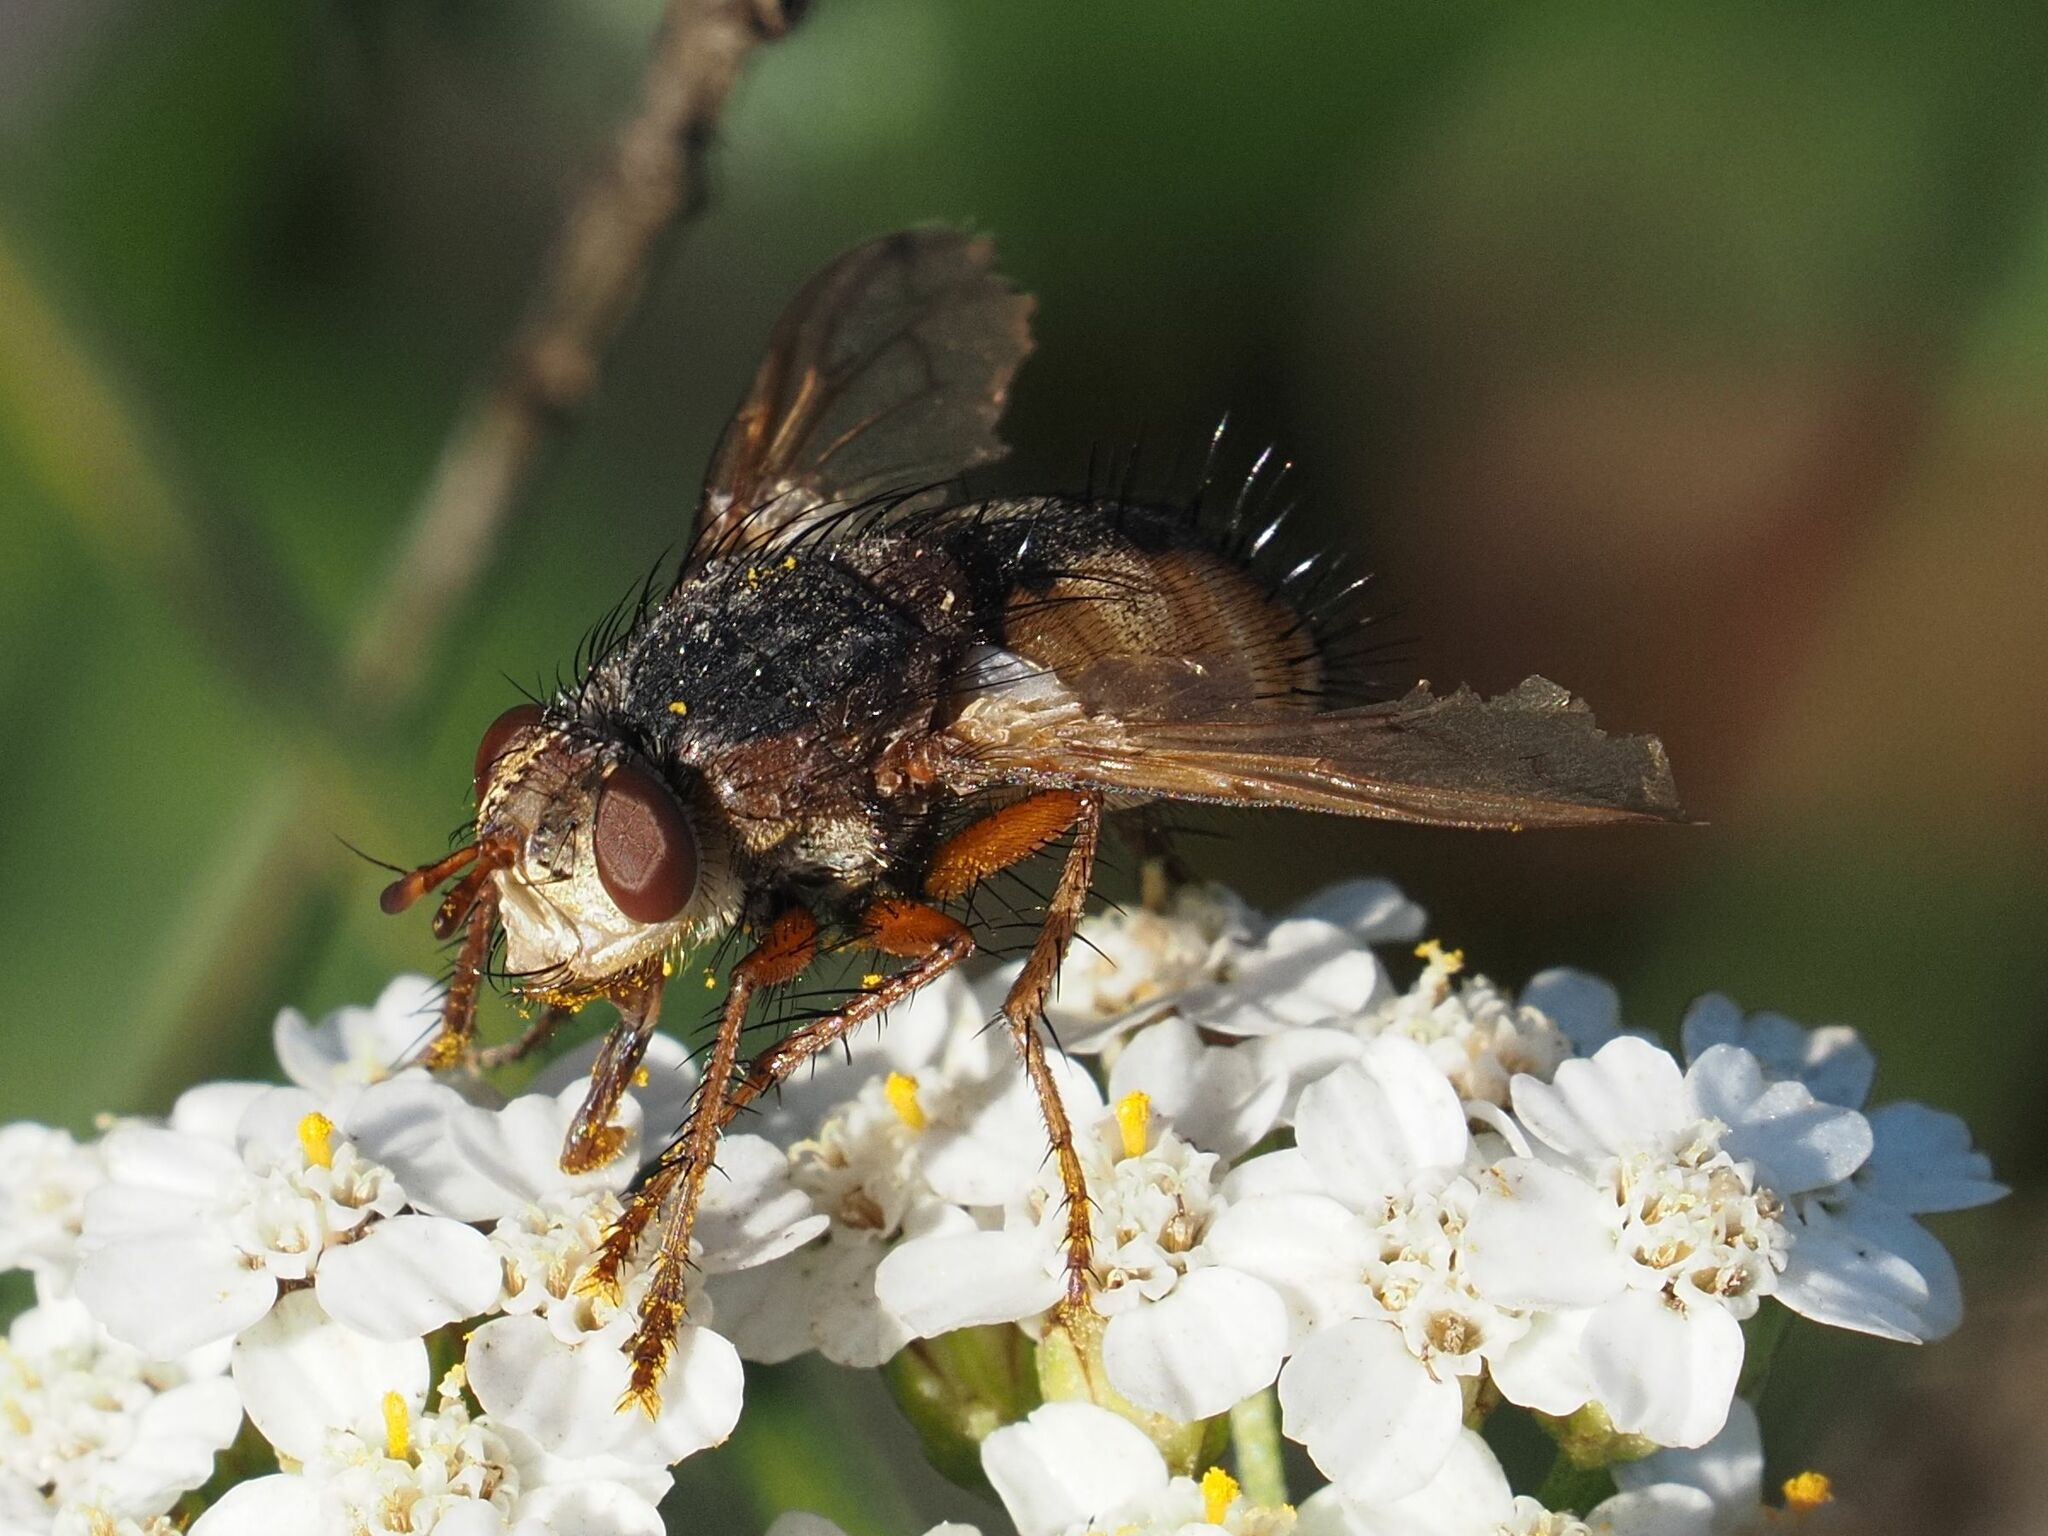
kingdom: Animalia
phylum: Arthropoda
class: Insecta
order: Diptera
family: Tachinidae
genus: Tachina
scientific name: Tachina fera
